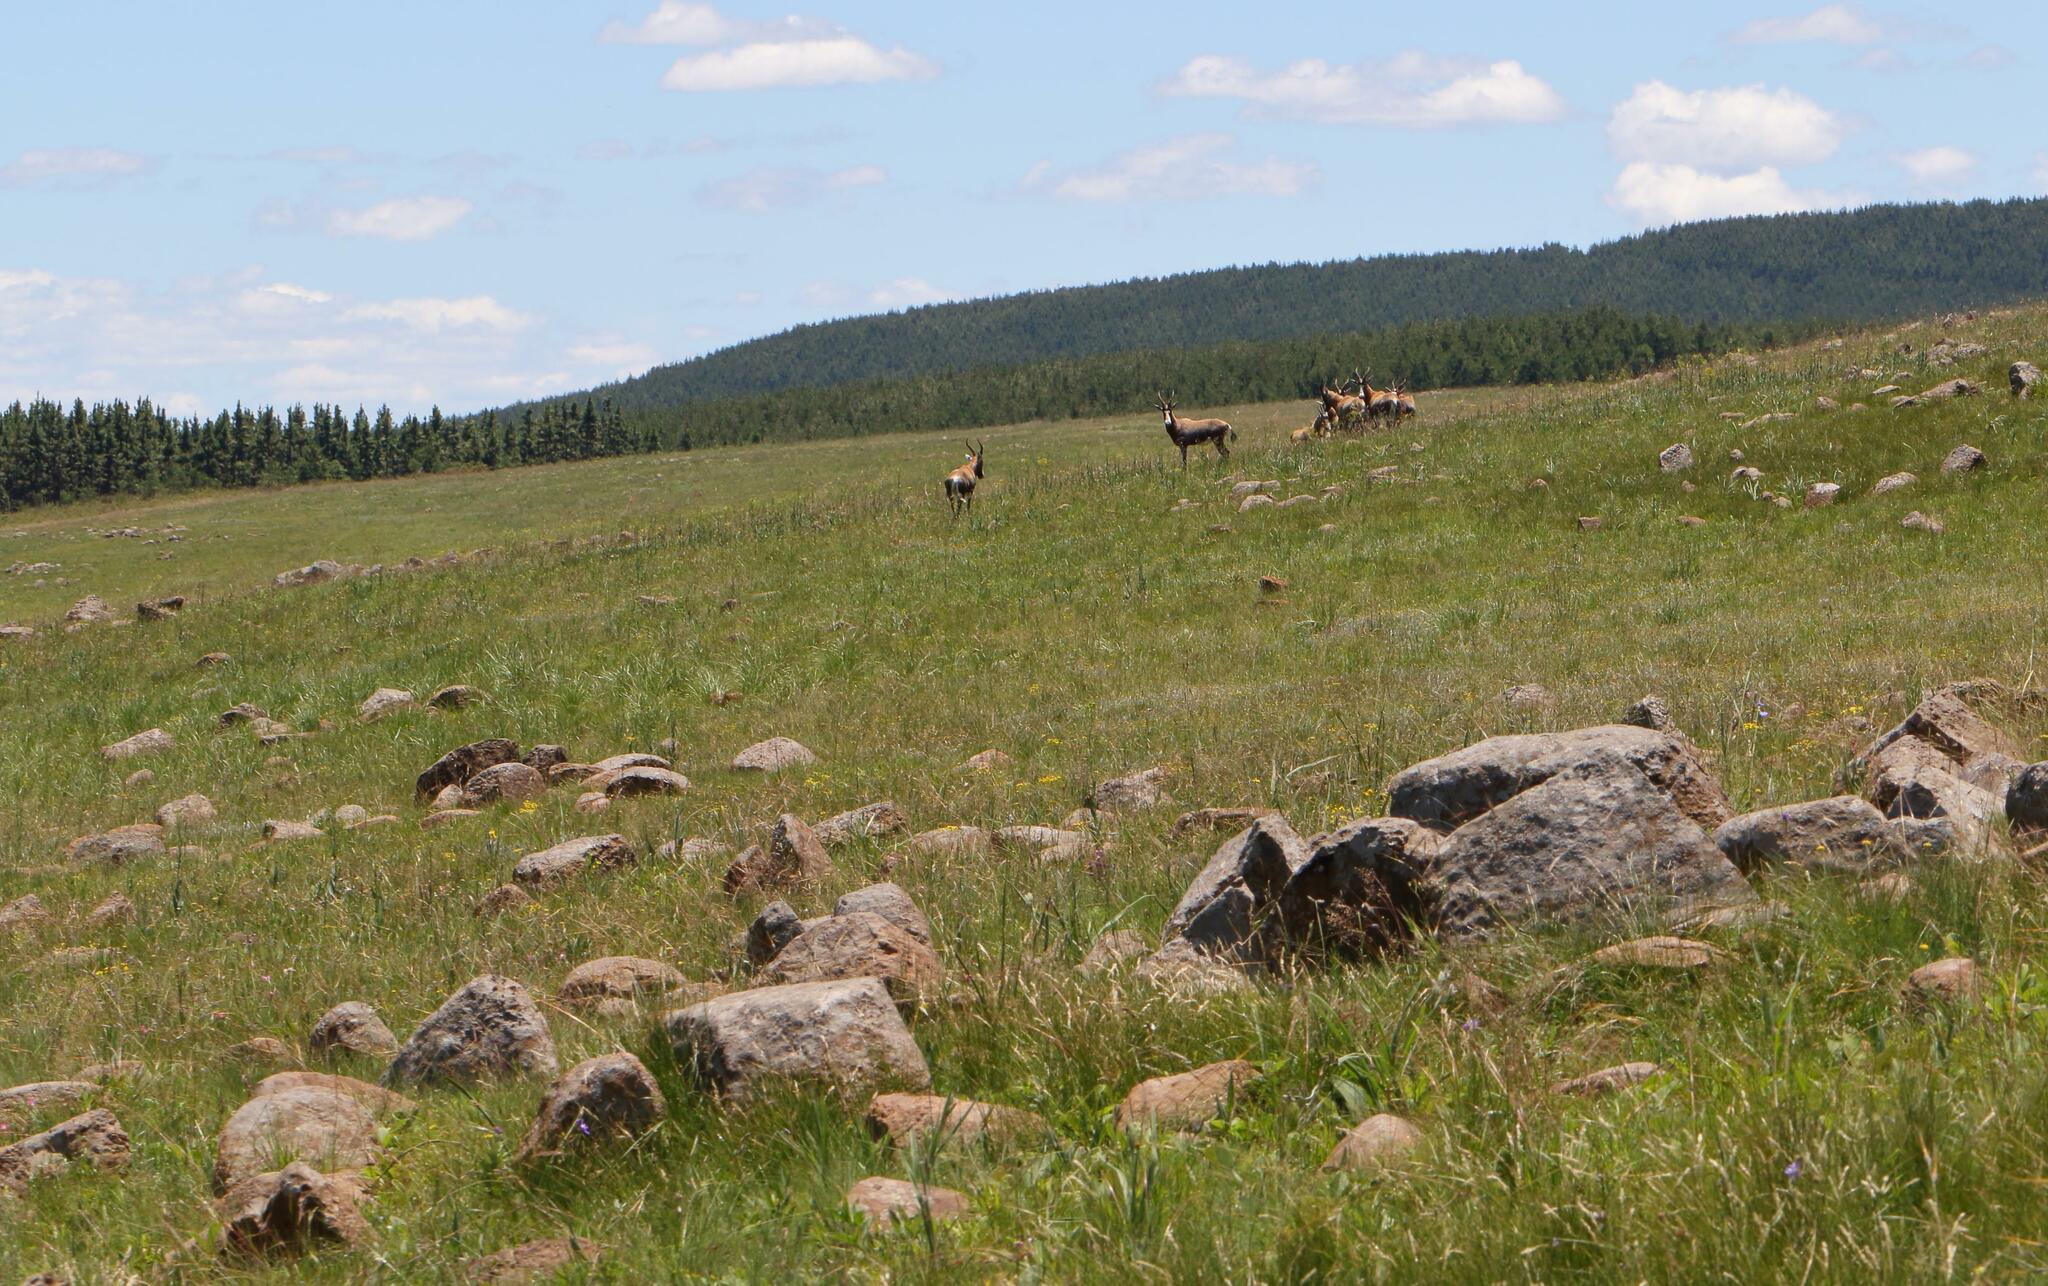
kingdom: Animalia
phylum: Chordata
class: Mammalia
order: Artiodactyla
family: Bovidae
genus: Damaliscus
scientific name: Damaliscus pygargus
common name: Bontebok
